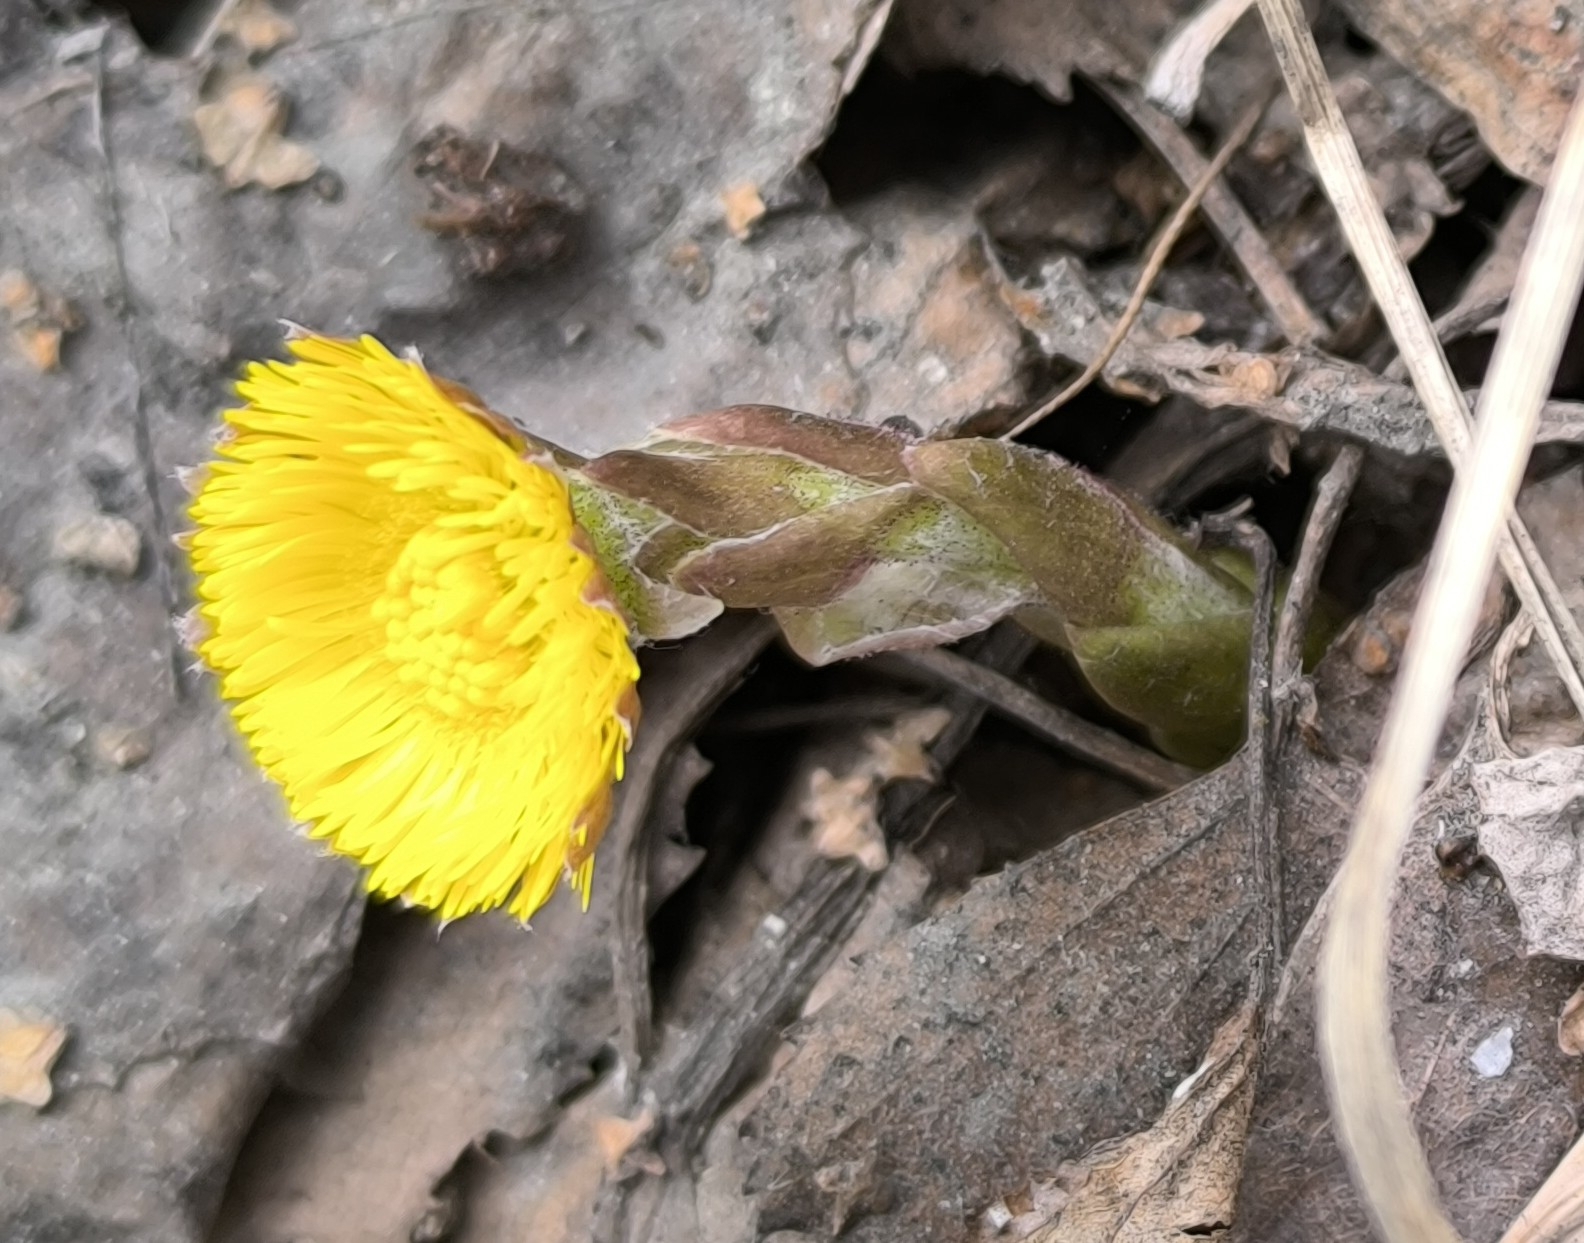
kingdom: Plantae
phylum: Tracheophyta
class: Magnoliopsida
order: Asterales
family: Asteraceae
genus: Tussilago
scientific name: Tussilago farfara
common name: Coltsfoot
